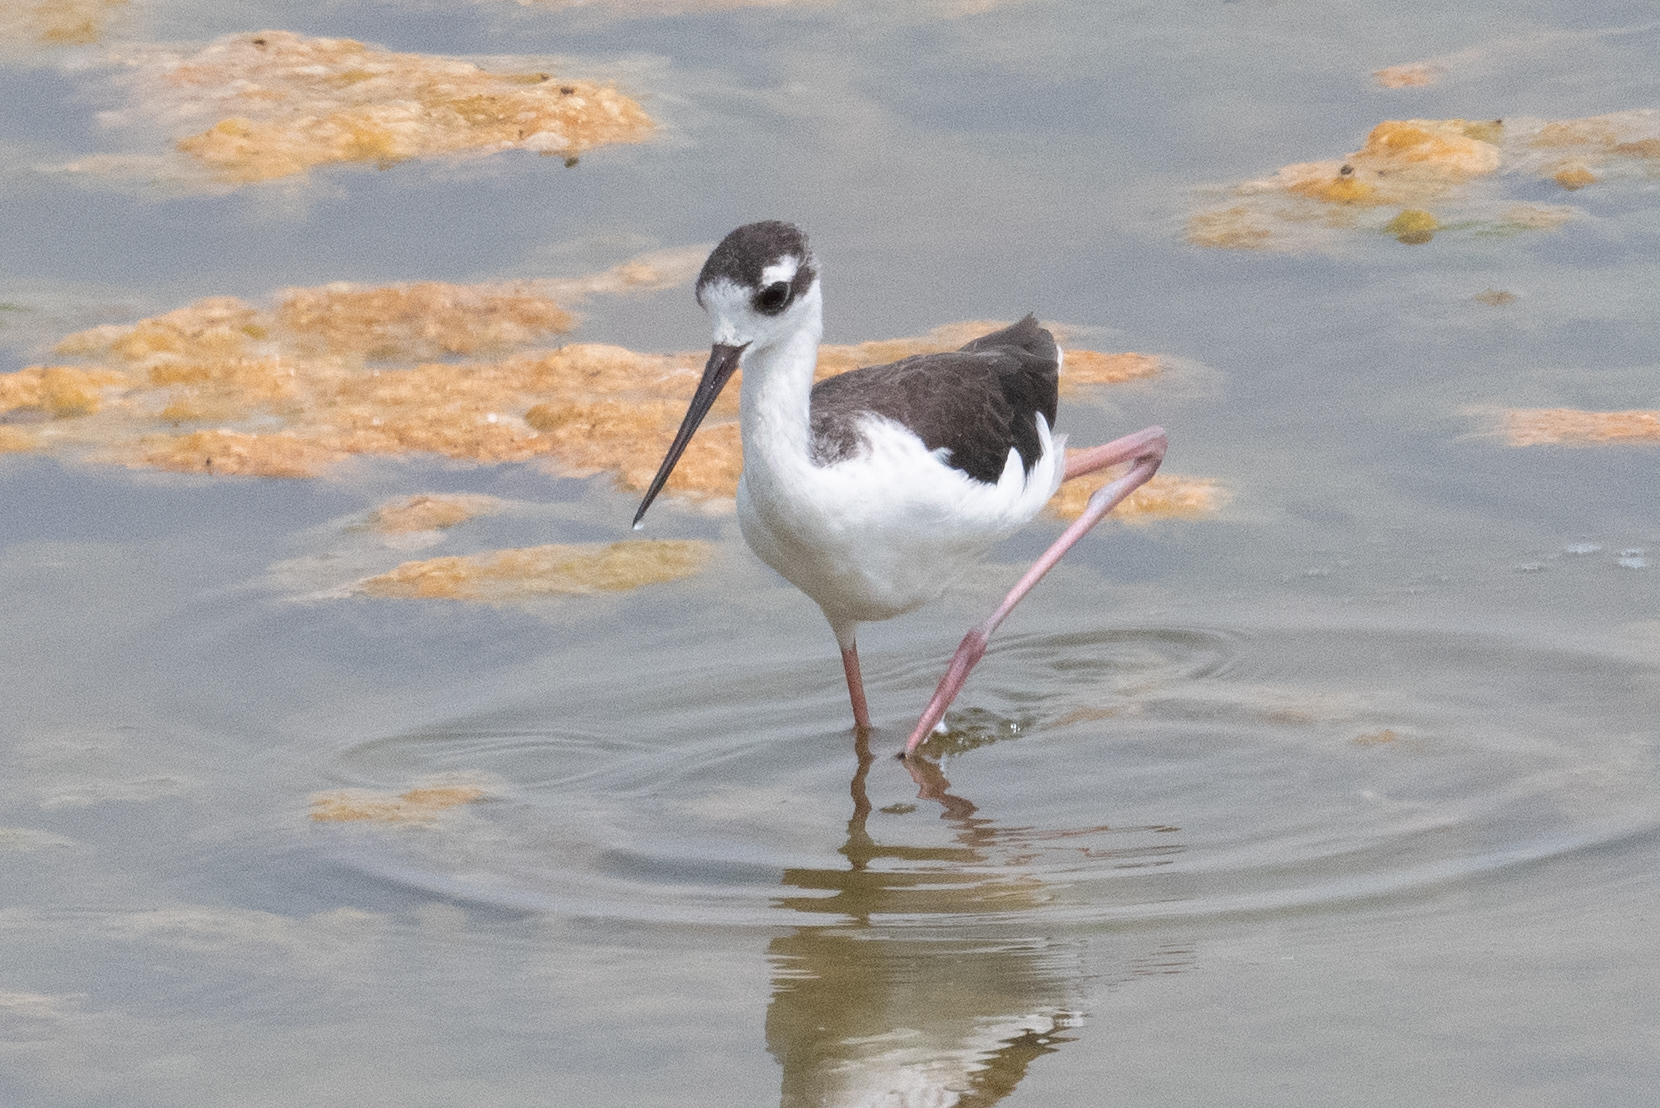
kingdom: Animalia
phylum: Chordata
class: Aves
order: Charadriiformes
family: Recurvirostridae
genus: Himantopus
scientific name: Himantopus mexicanus
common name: Black-necked stilt
